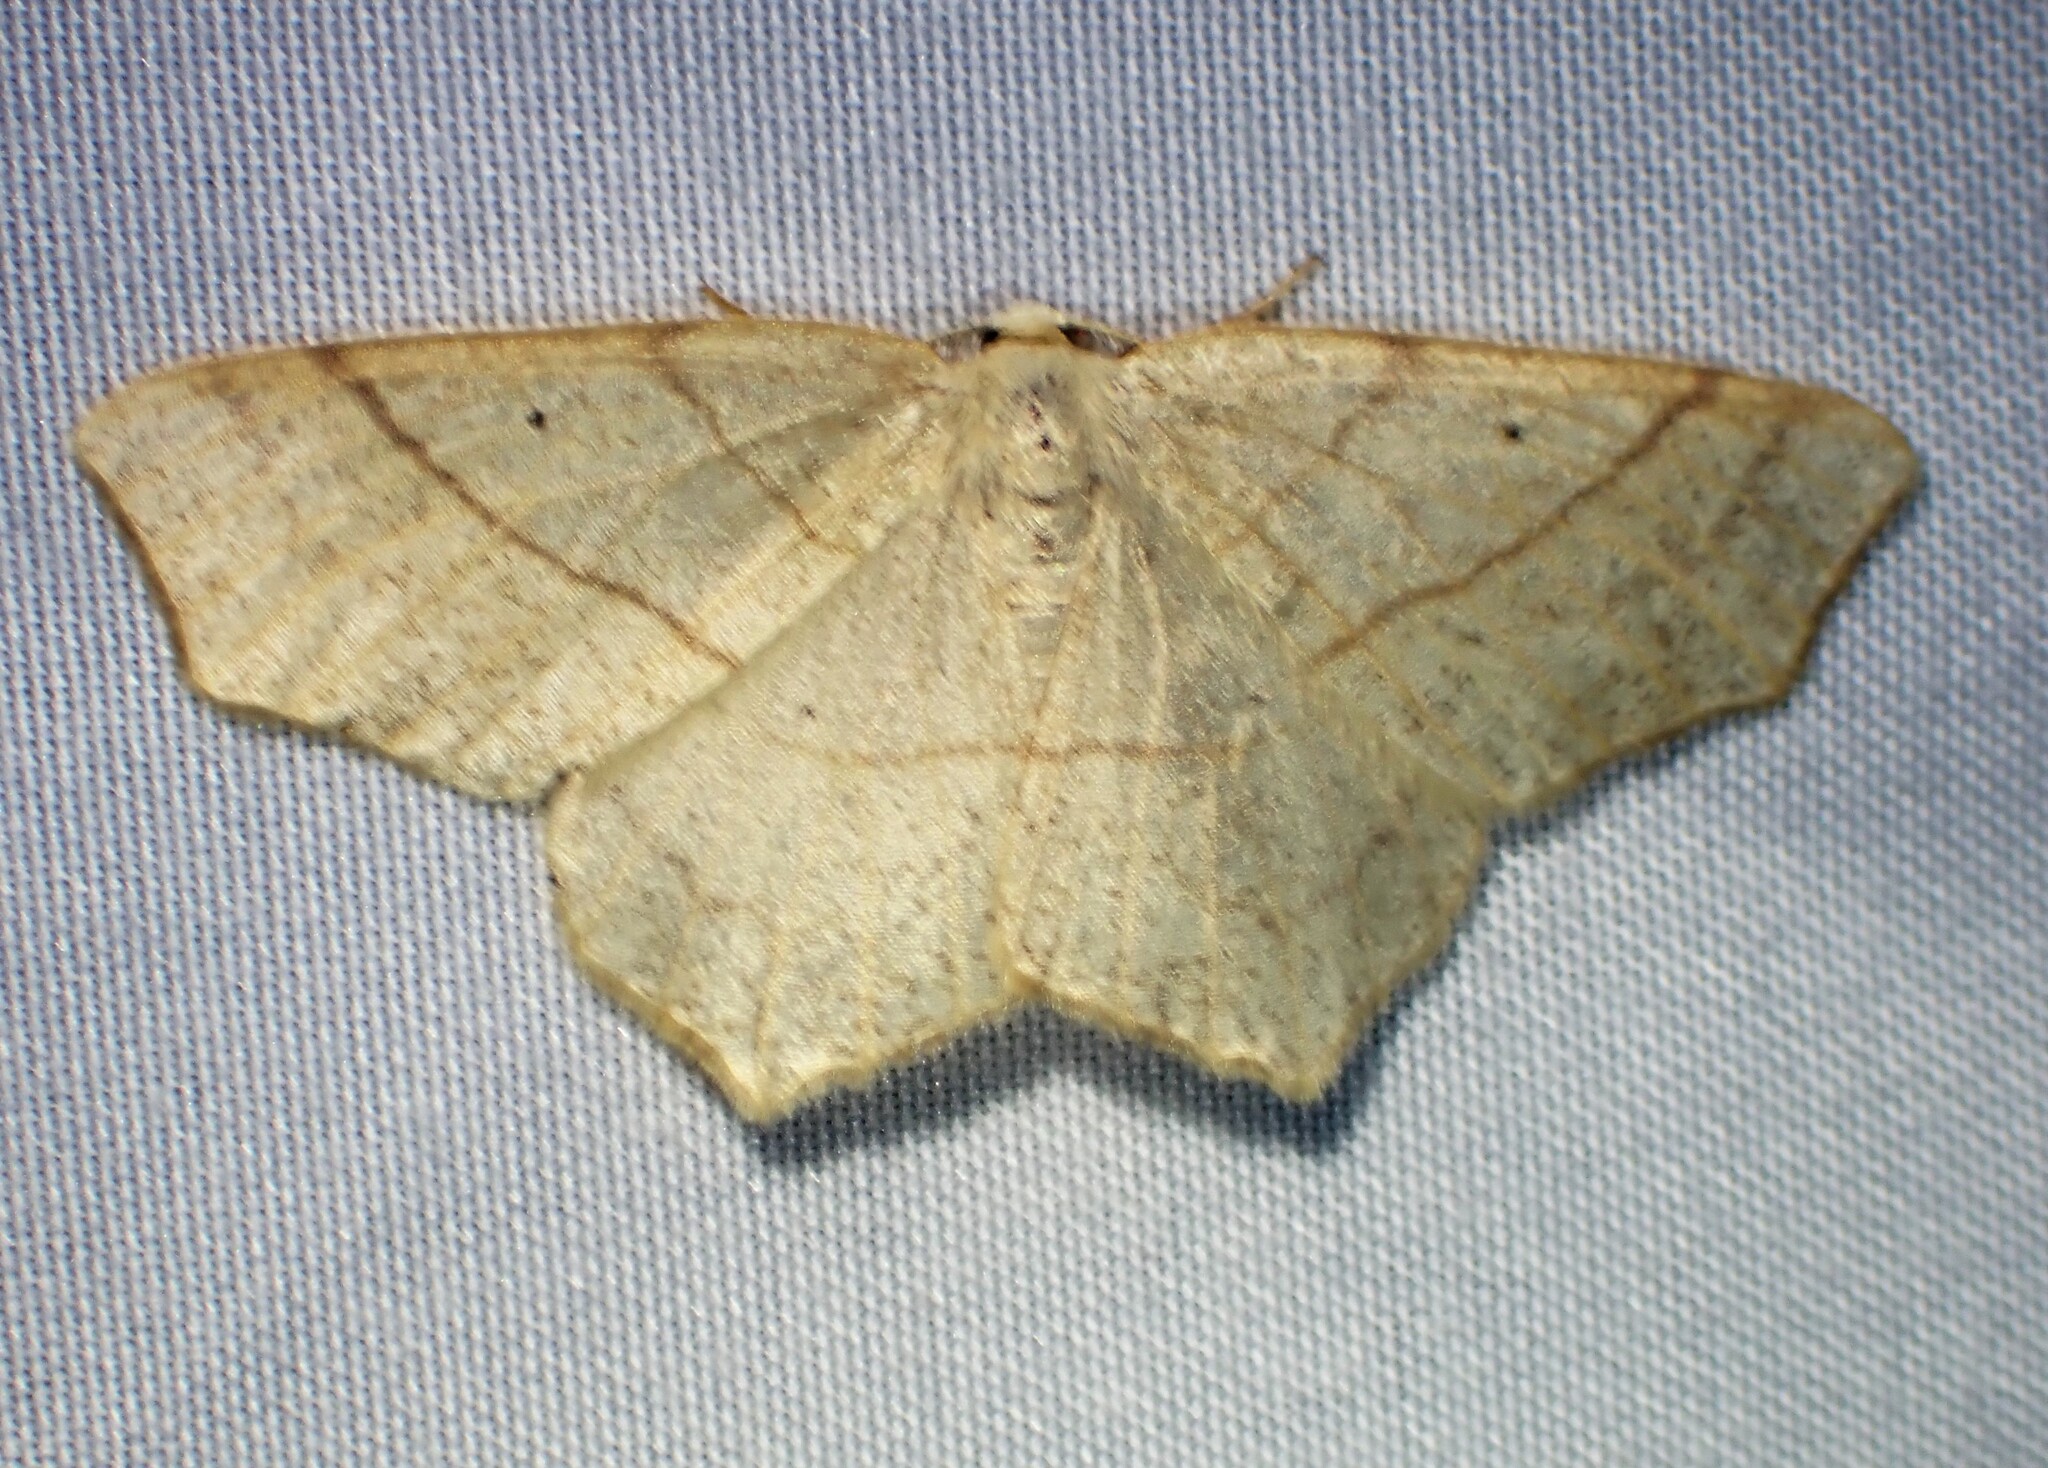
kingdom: Animalia
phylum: Arthropoda
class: Insecta
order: Lepidoptera
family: Geometridae
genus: Besma
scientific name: Besma quercivoraria
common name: Oak besma
